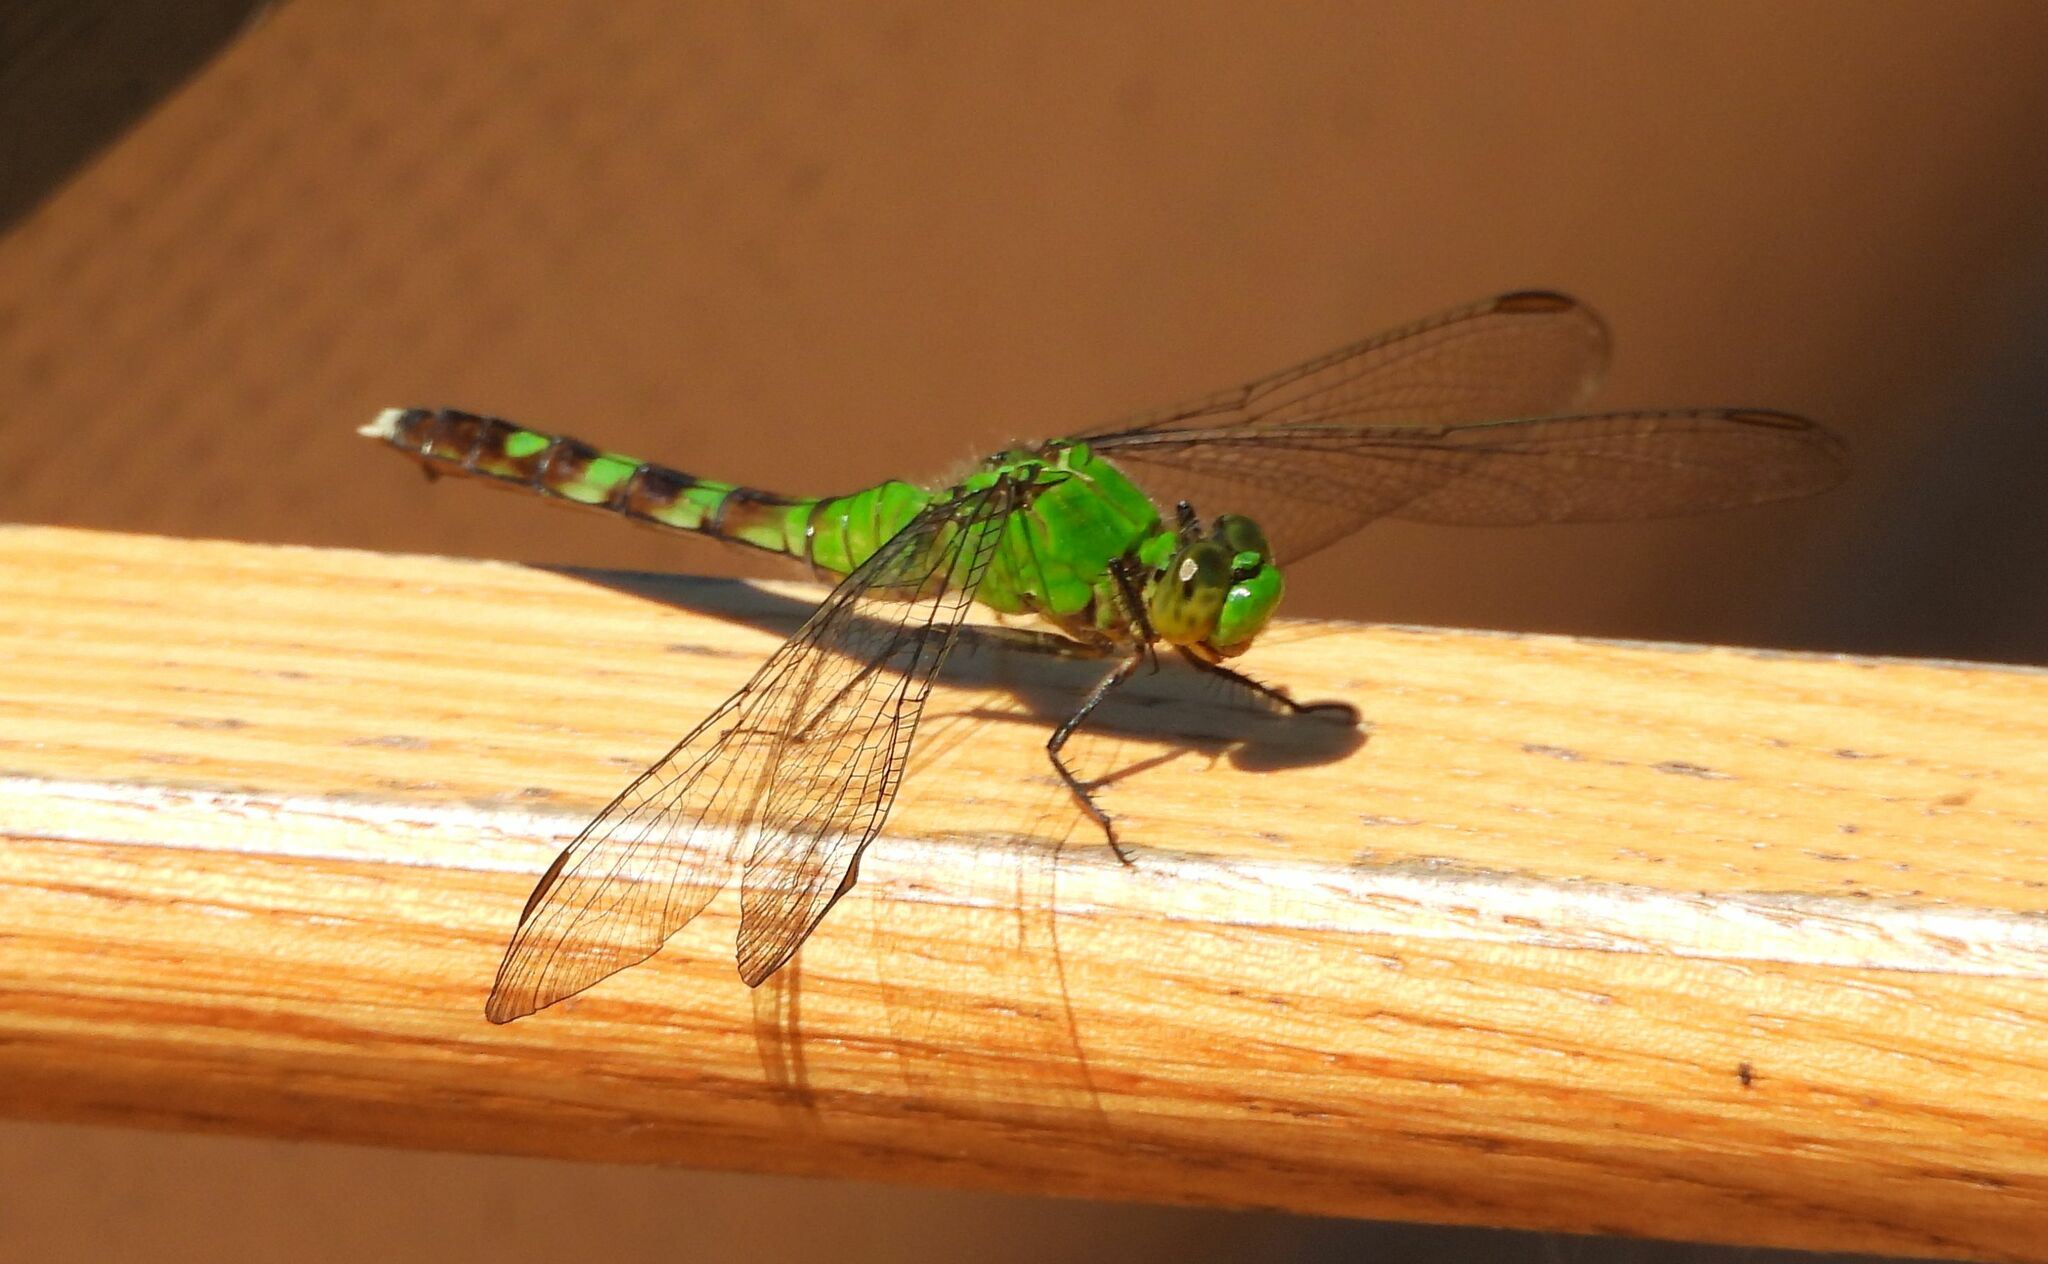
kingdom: Animalia
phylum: Arthropoda
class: Insecta
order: Odonata
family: Libellulidae
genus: Erythemis
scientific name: Erythemis simplicicollis
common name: Eastern pondhawk
